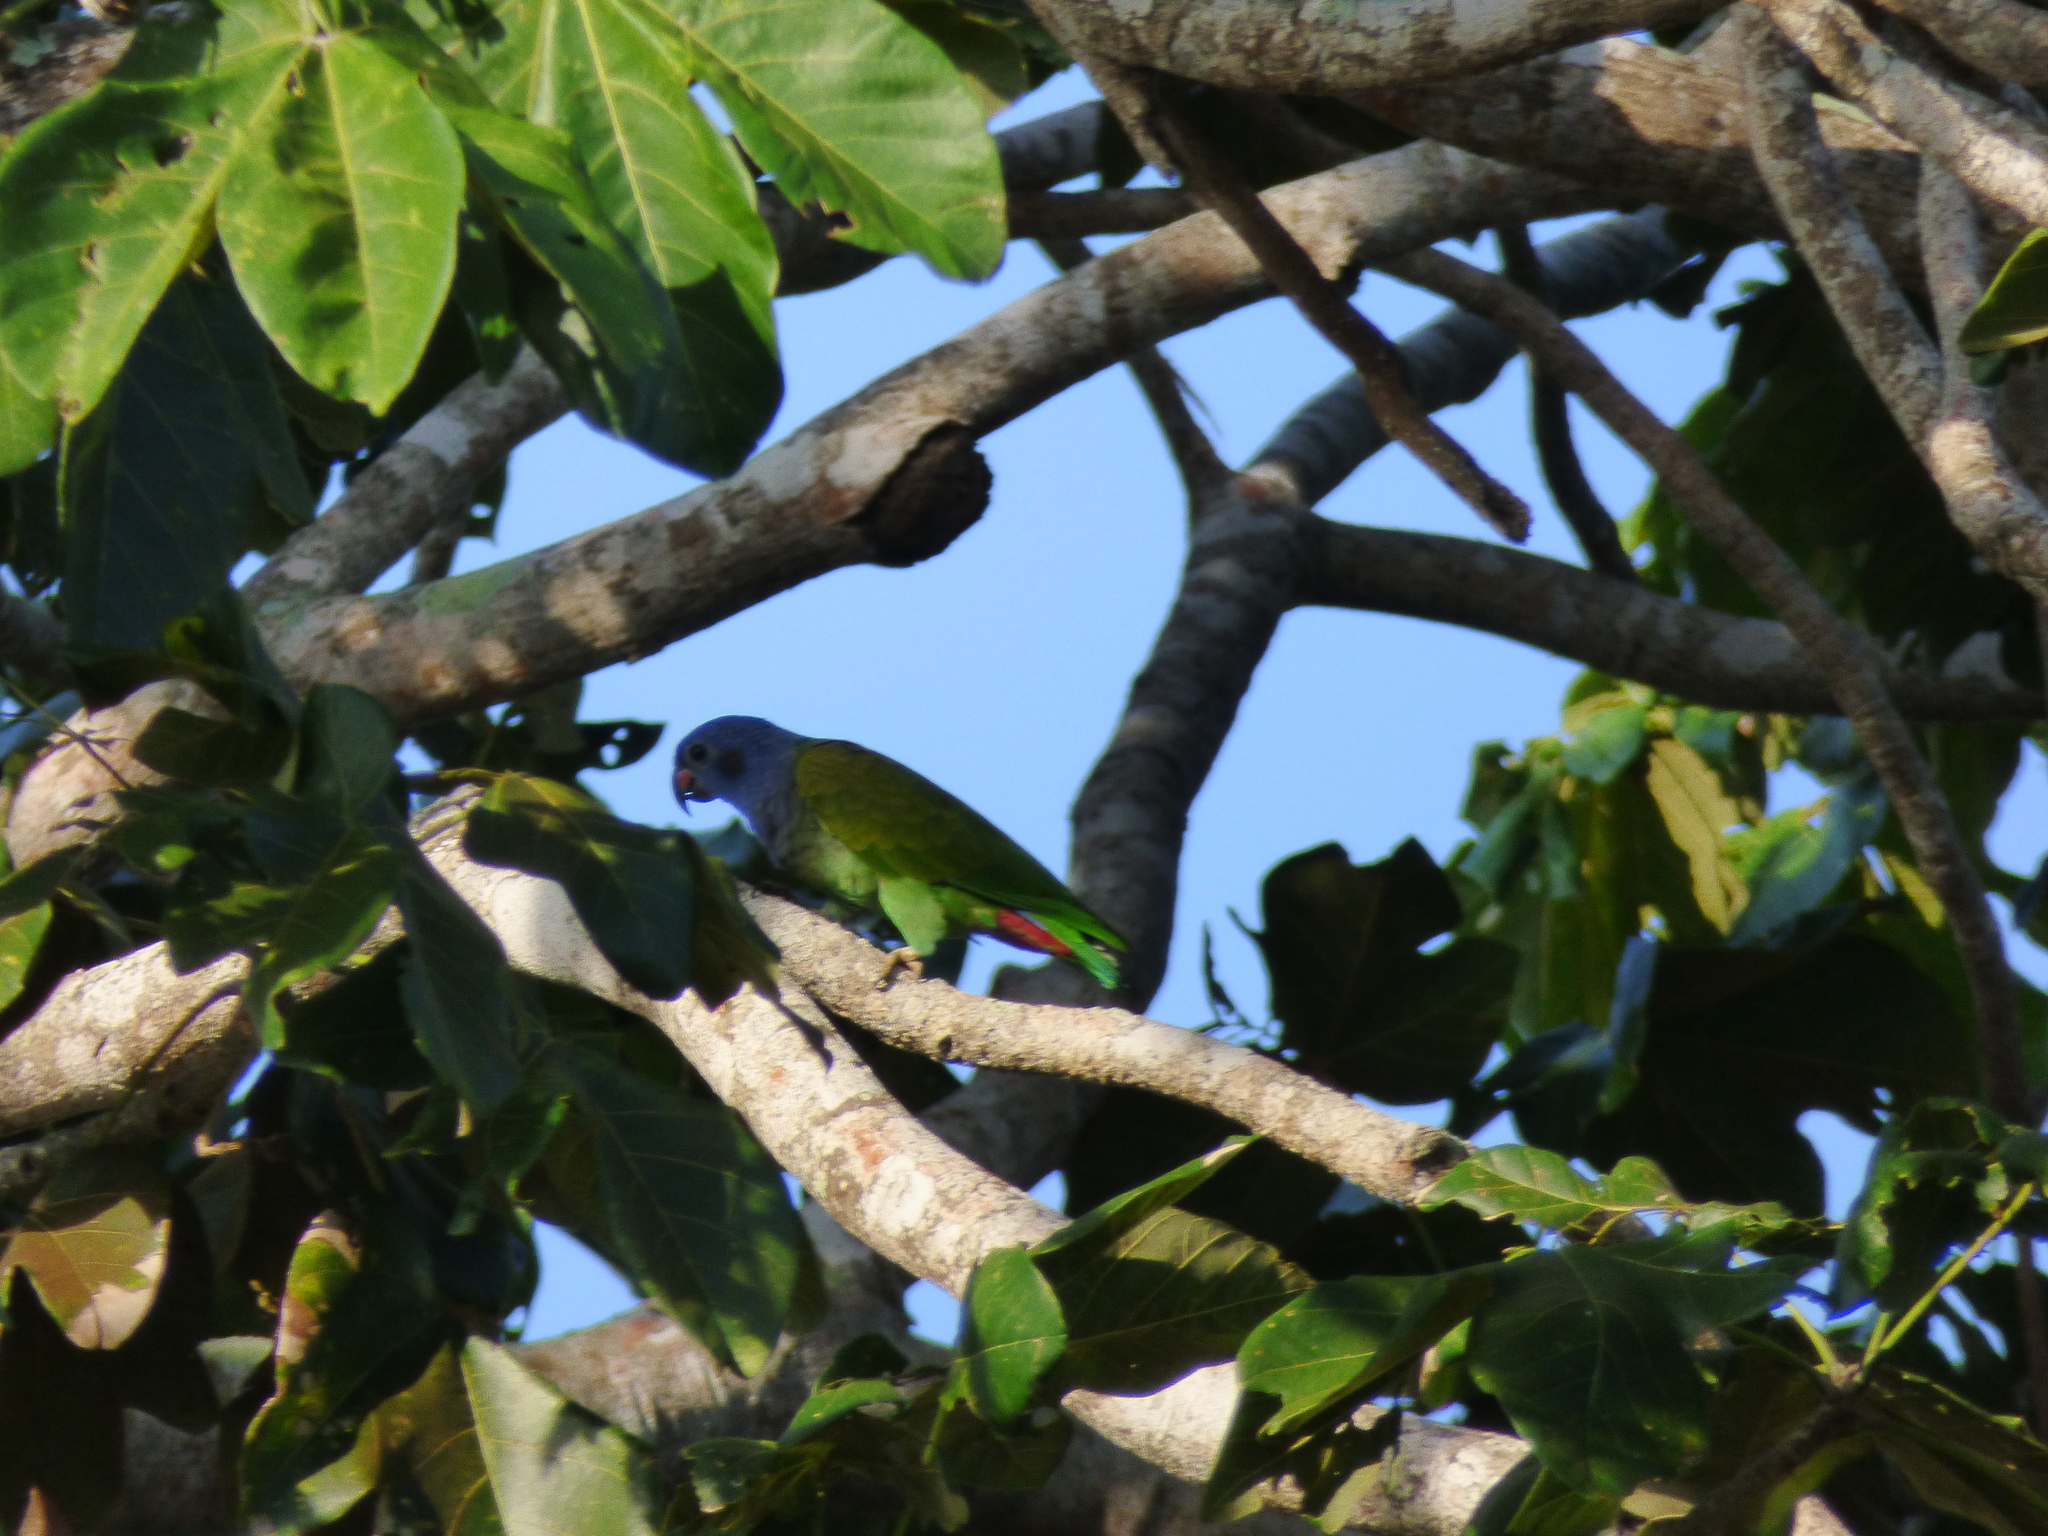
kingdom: Animalia
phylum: Chordata
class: Aves
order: Psittaciformes
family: Psittacidae
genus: Pionus
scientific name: Pionus menstruus
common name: Blue-headed parrot
